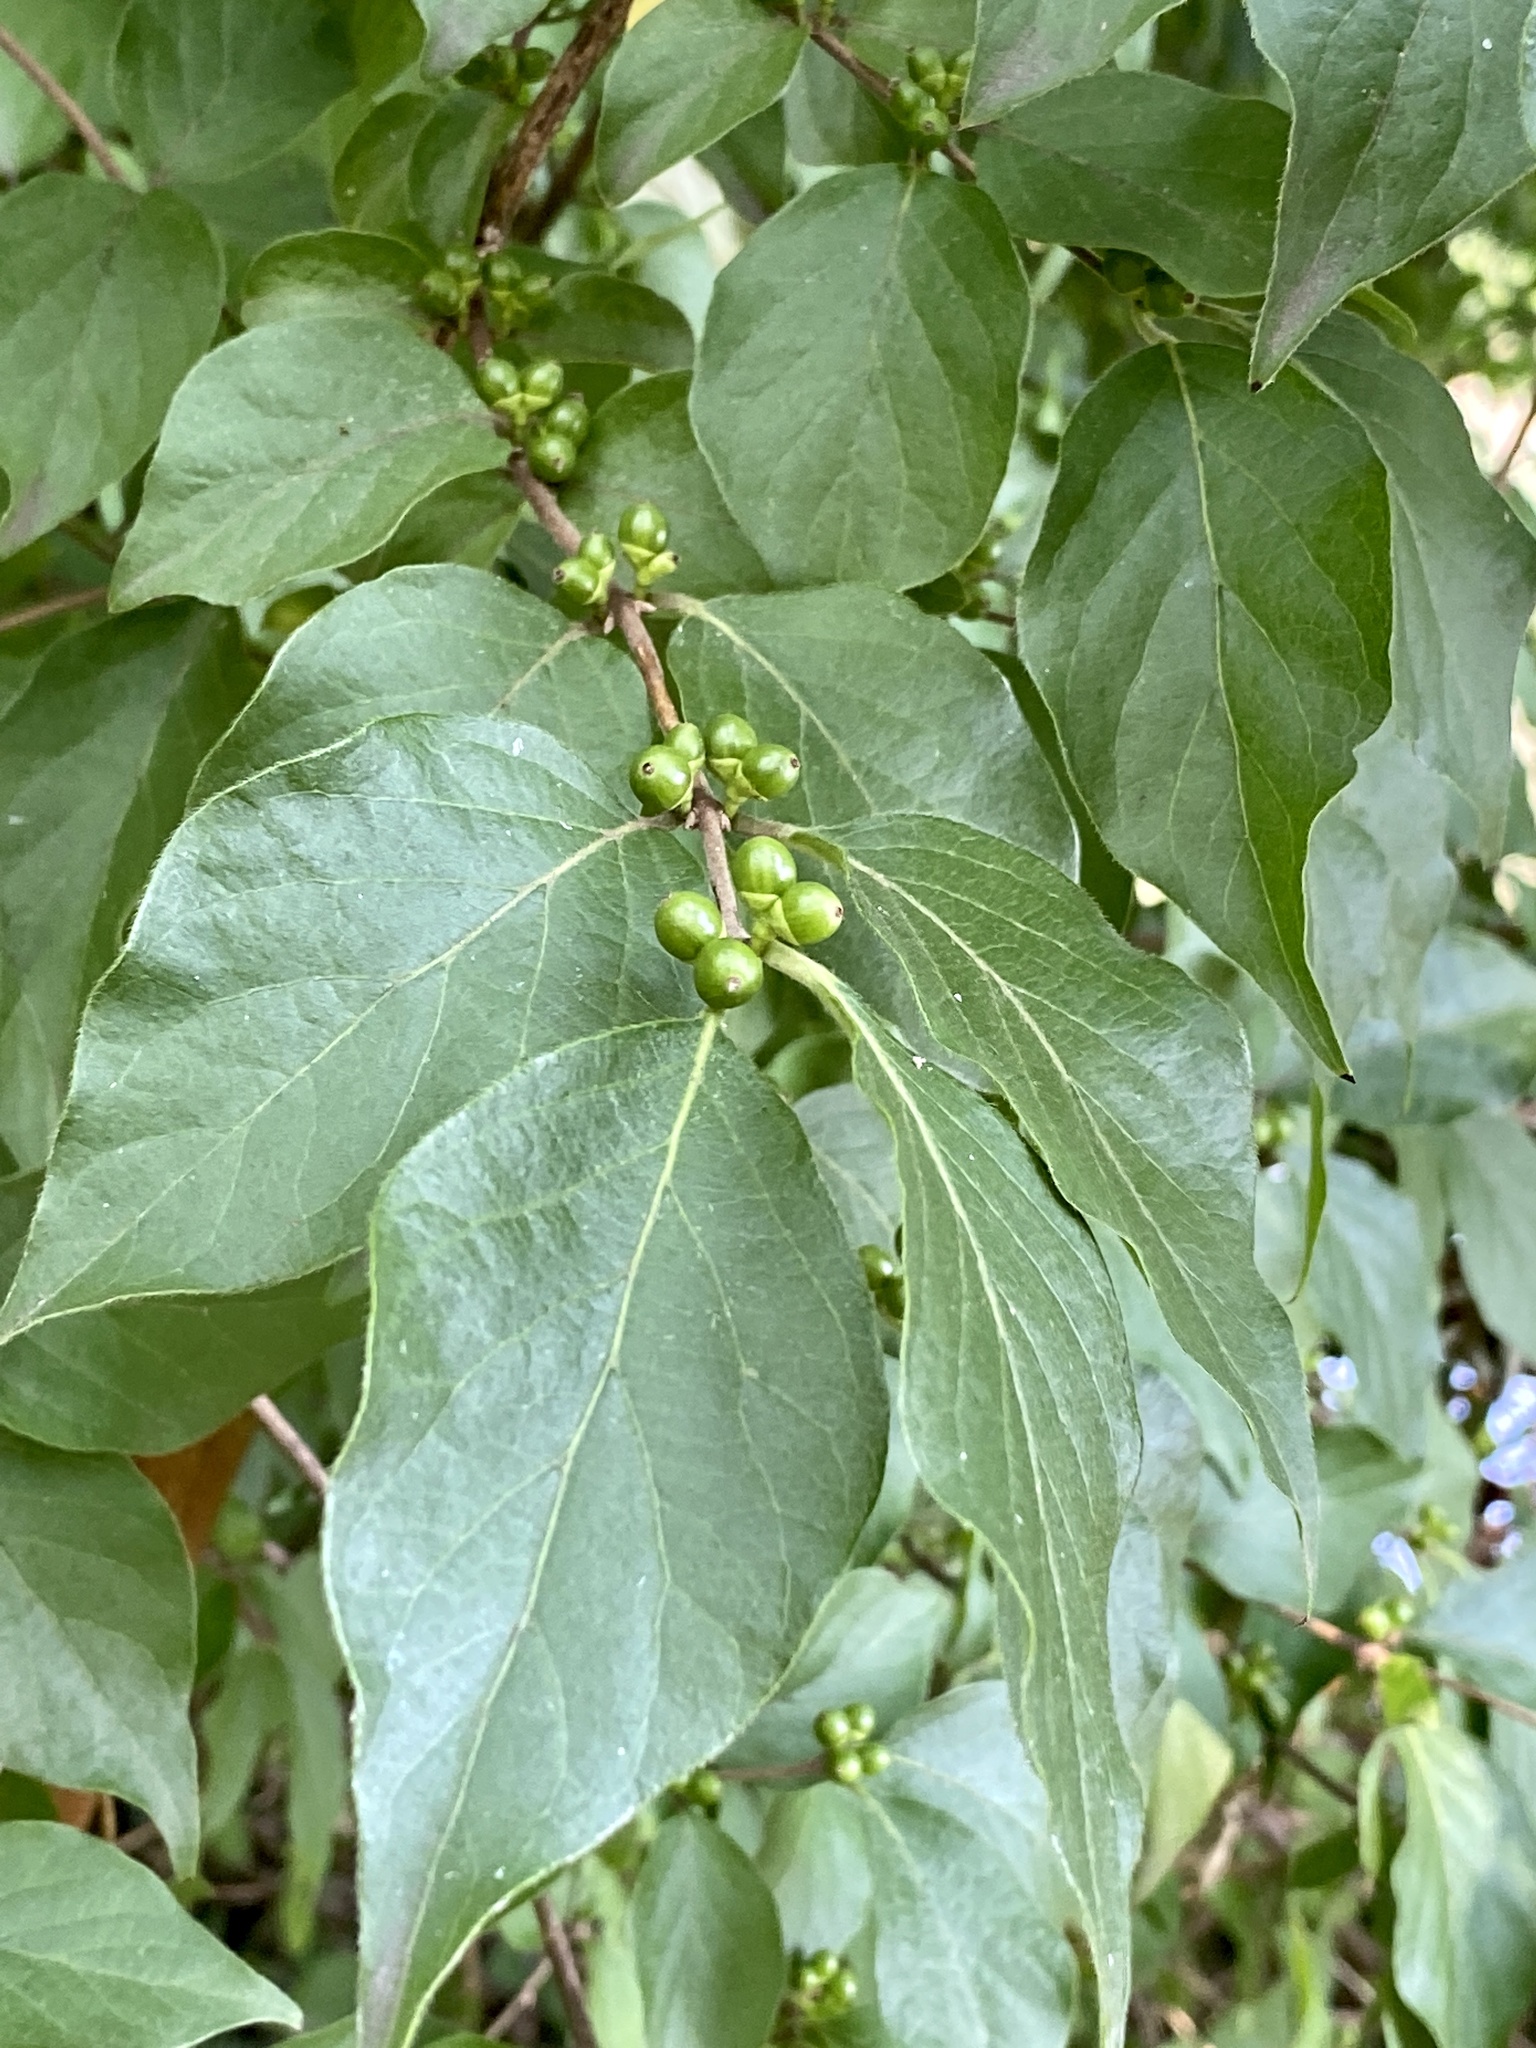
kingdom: Plantae
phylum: Tracheophyta
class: Magnoliopsida
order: Dipsacales
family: Caprifoliaceae
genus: Lonicera
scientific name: Lonicera maackii
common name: Amur honeysuckle
